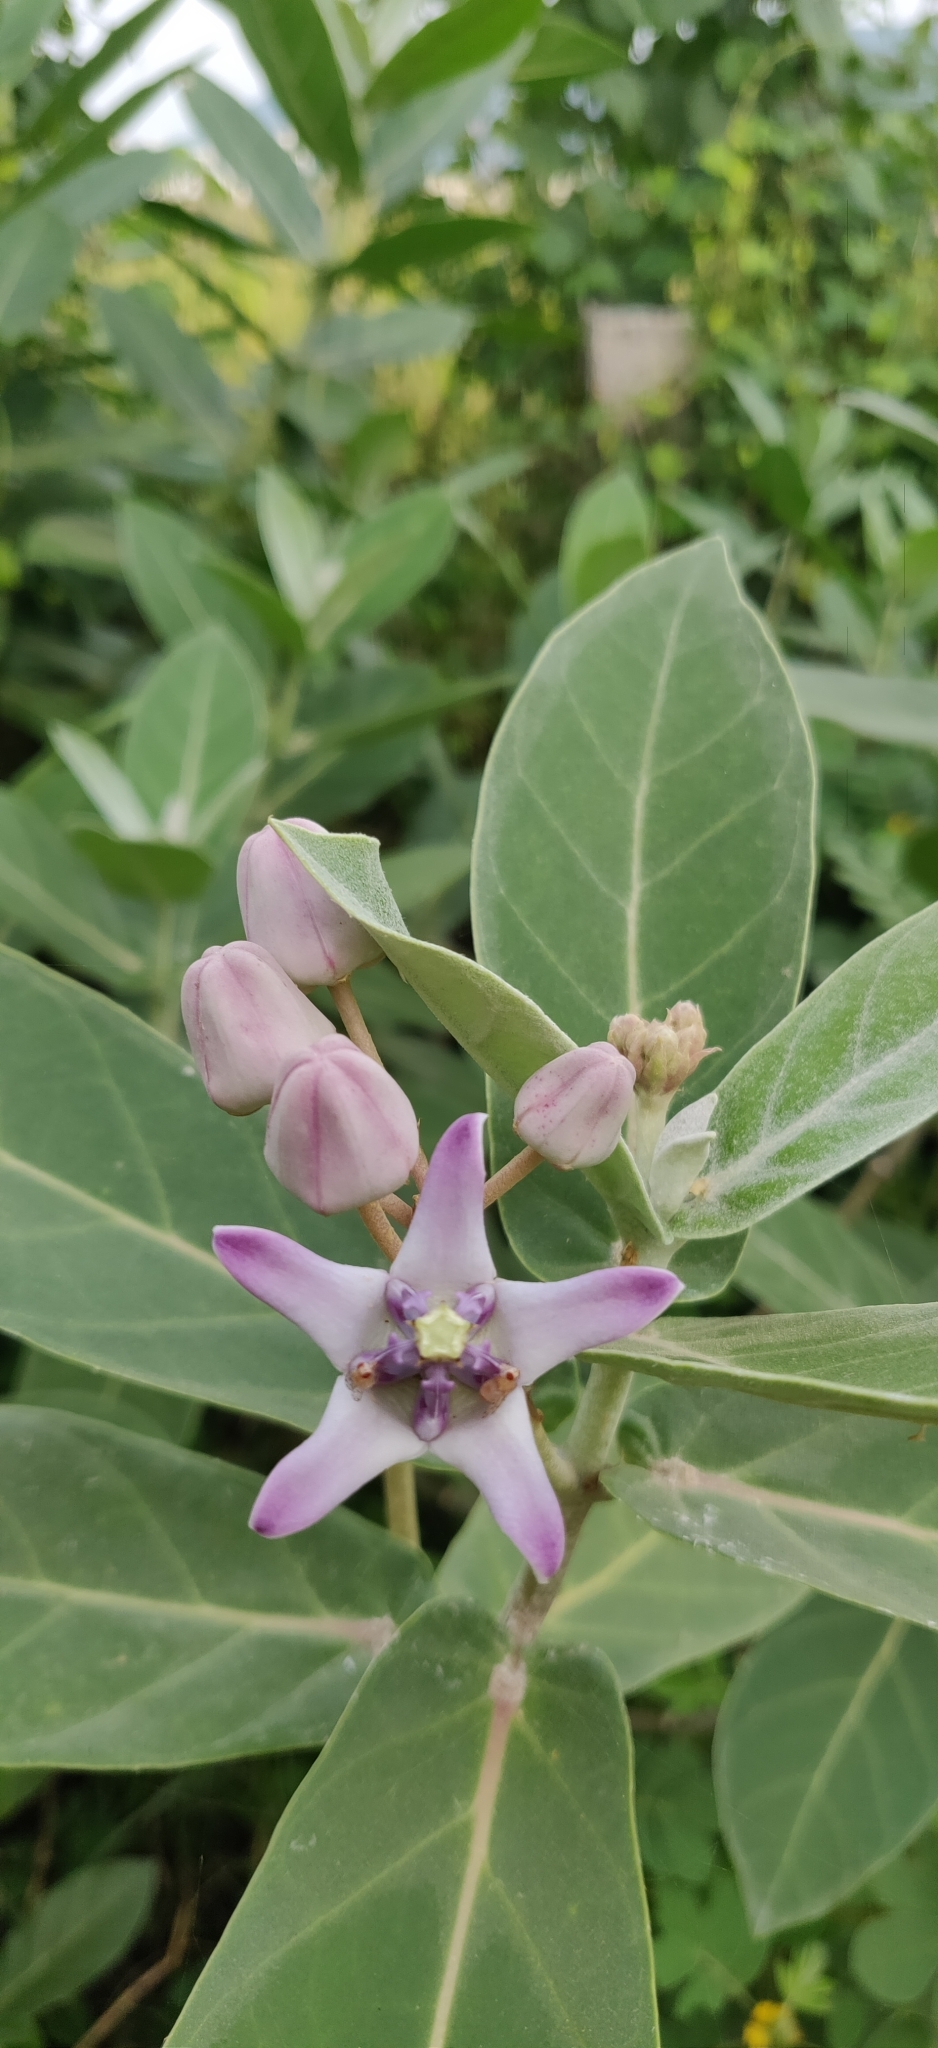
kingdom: Plantae
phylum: Tracheophyta
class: Magnoliopsida
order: Gentianales
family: Apocynaceae
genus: Calotropis
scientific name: Calotropis gigantea
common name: Crown flower
